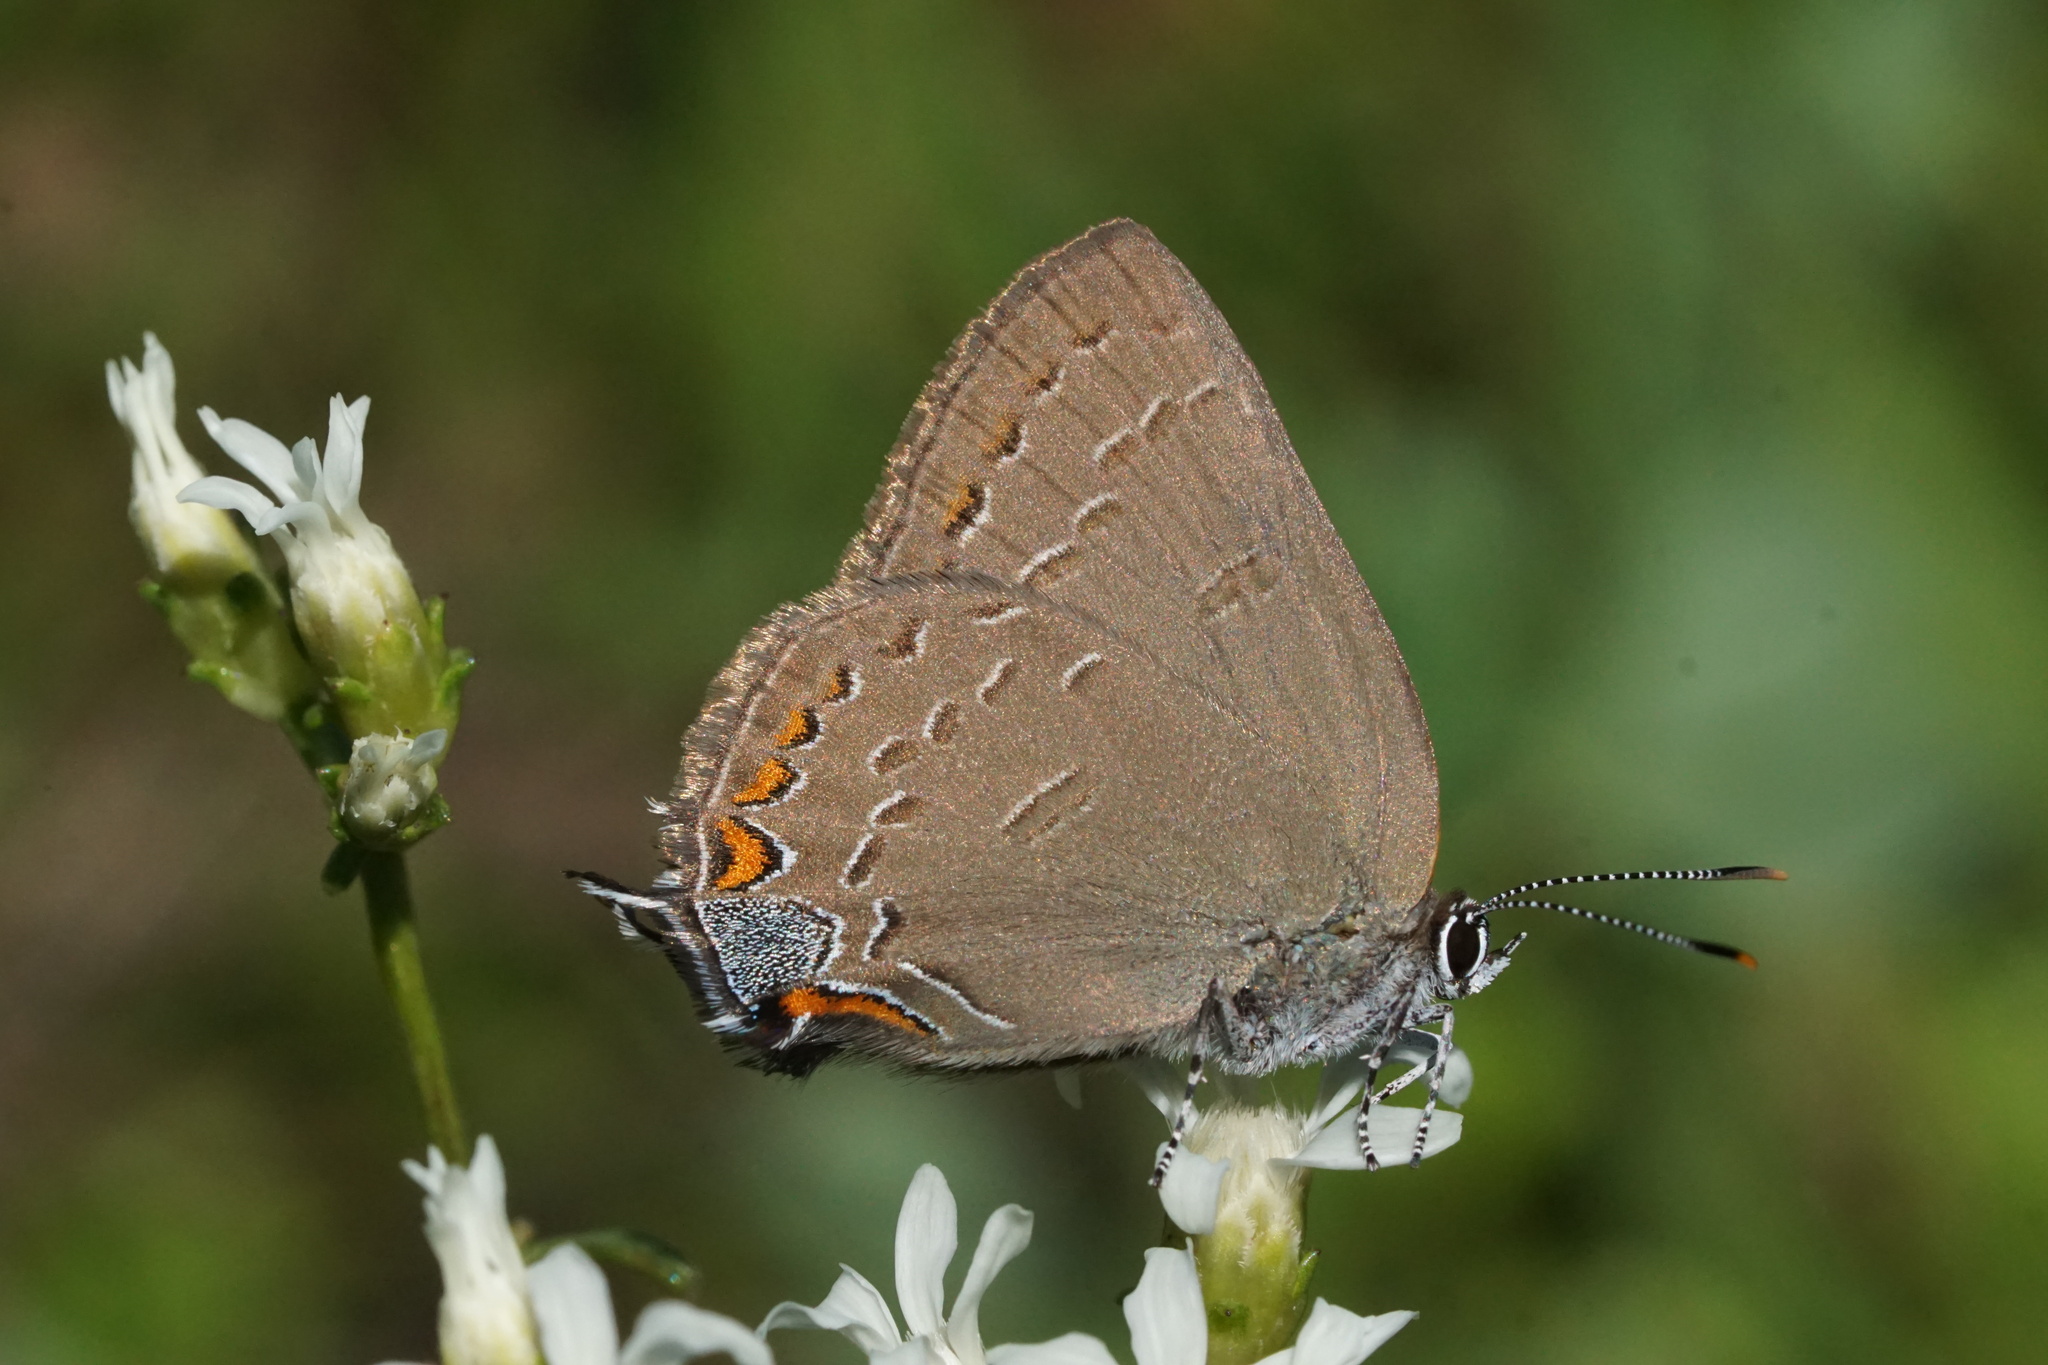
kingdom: Animalia
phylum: Arthropoda
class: Insecta
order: Lepidoptera
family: Lycaenidae
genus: Satyrium
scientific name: Satyrium edwardsii
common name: Edwards' hairstreak
